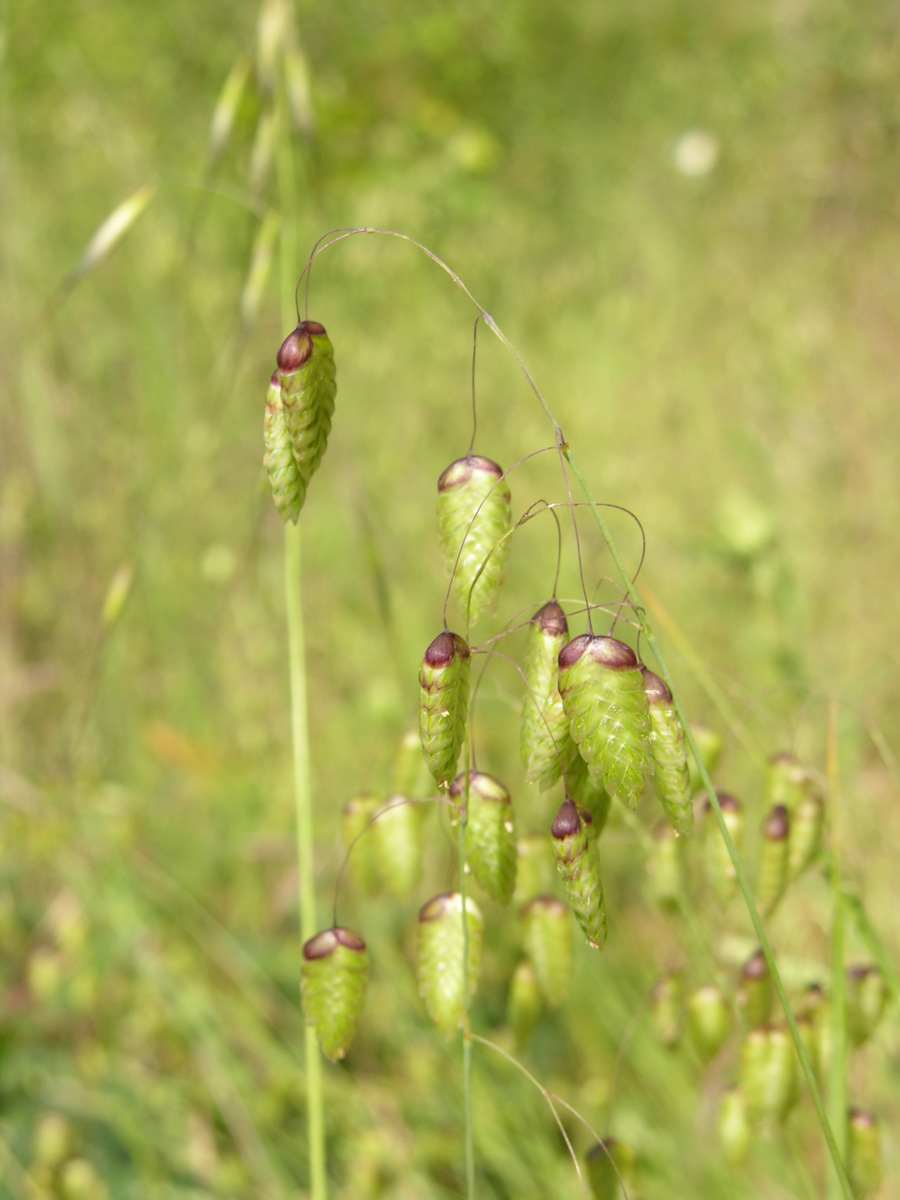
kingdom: Plantae
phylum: Tracheophyta
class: Liliopsida
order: Poales
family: Poaceae
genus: Briza
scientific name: Briza maxima
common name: Big quakinggrass
